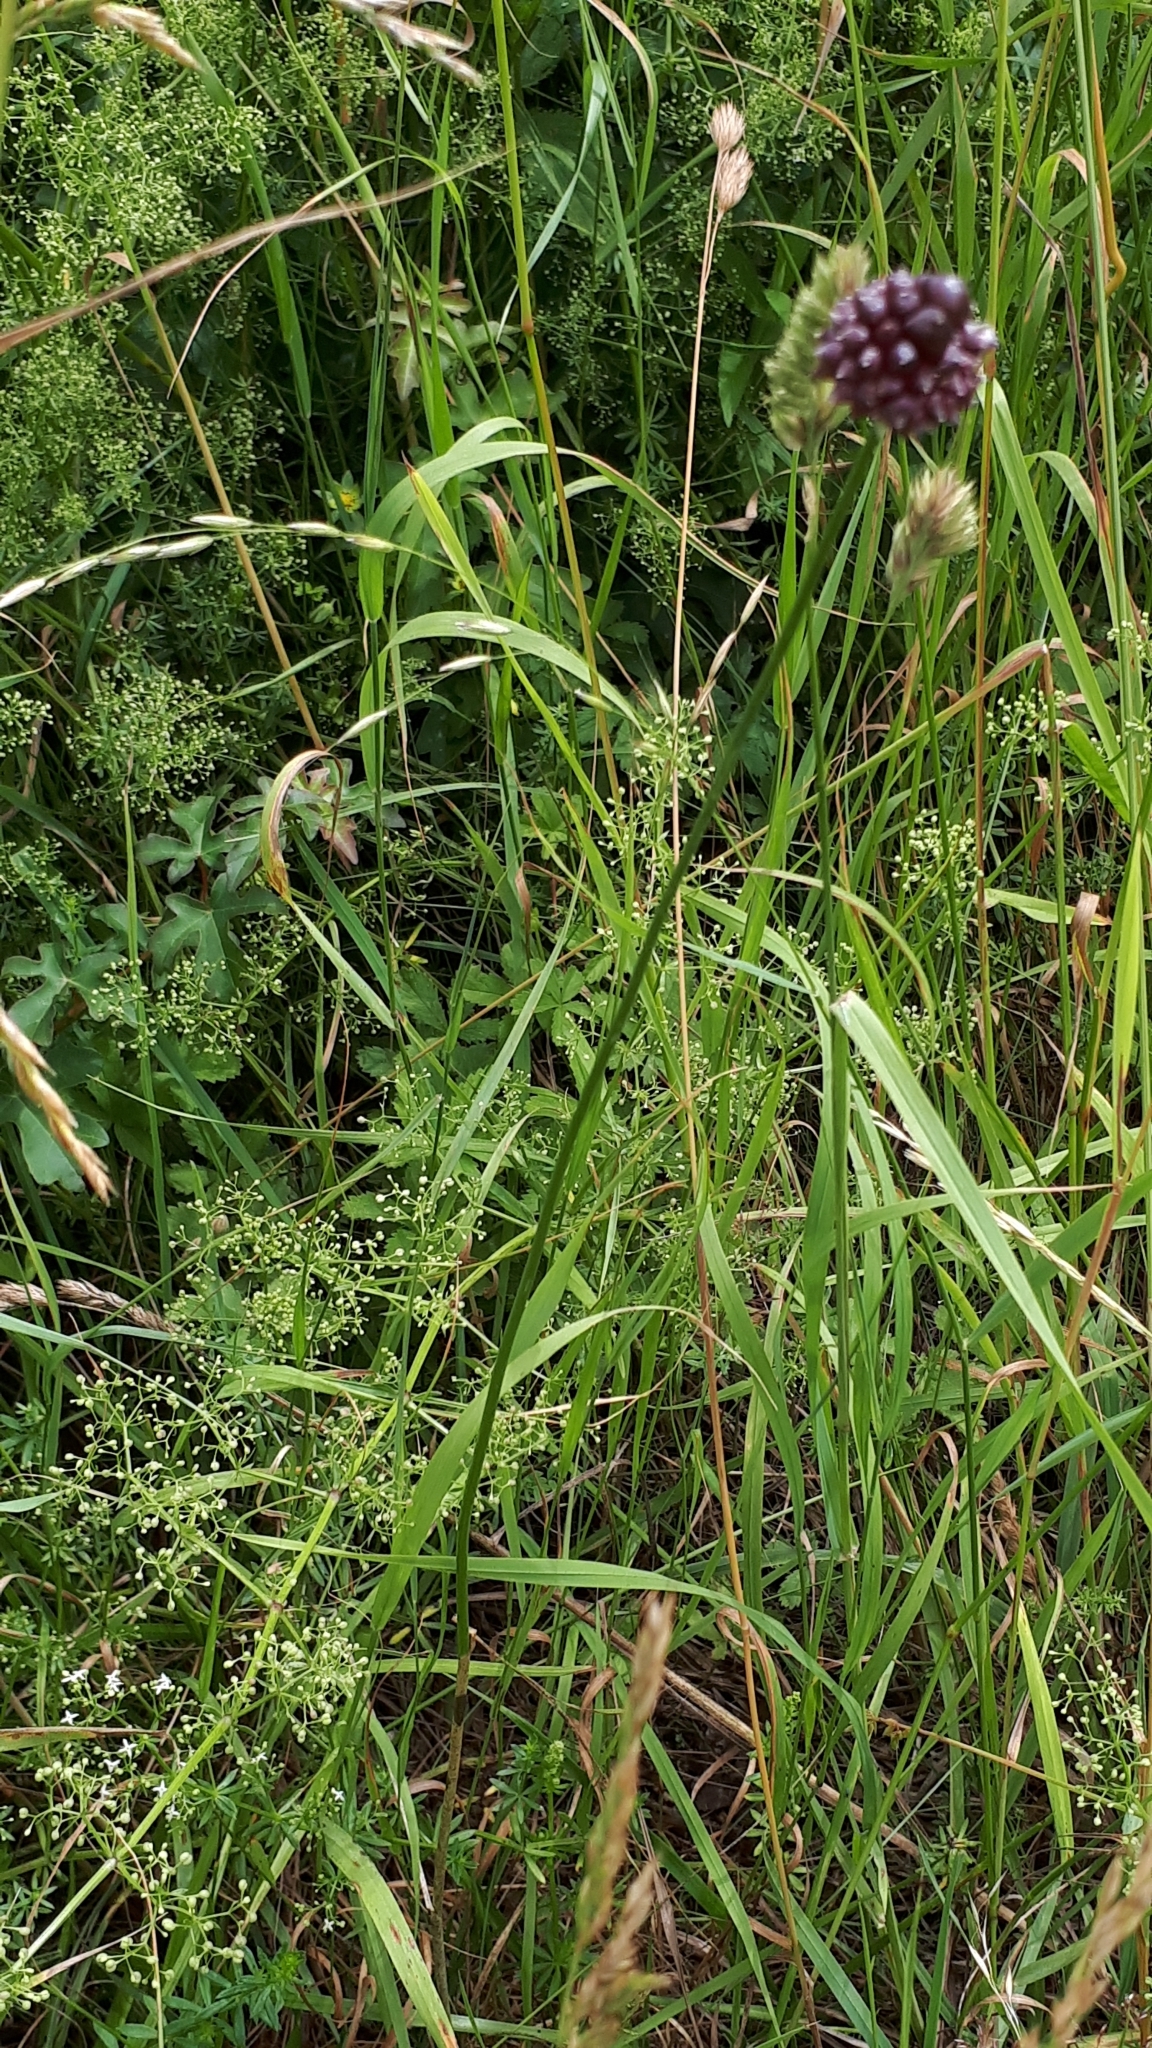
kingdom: Plantae
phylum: Tracheophyta
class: Liliopsida
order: Asparagales
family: Amaryllidaceae
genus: Allium
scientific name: Allium vineale
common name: Crow garlic
